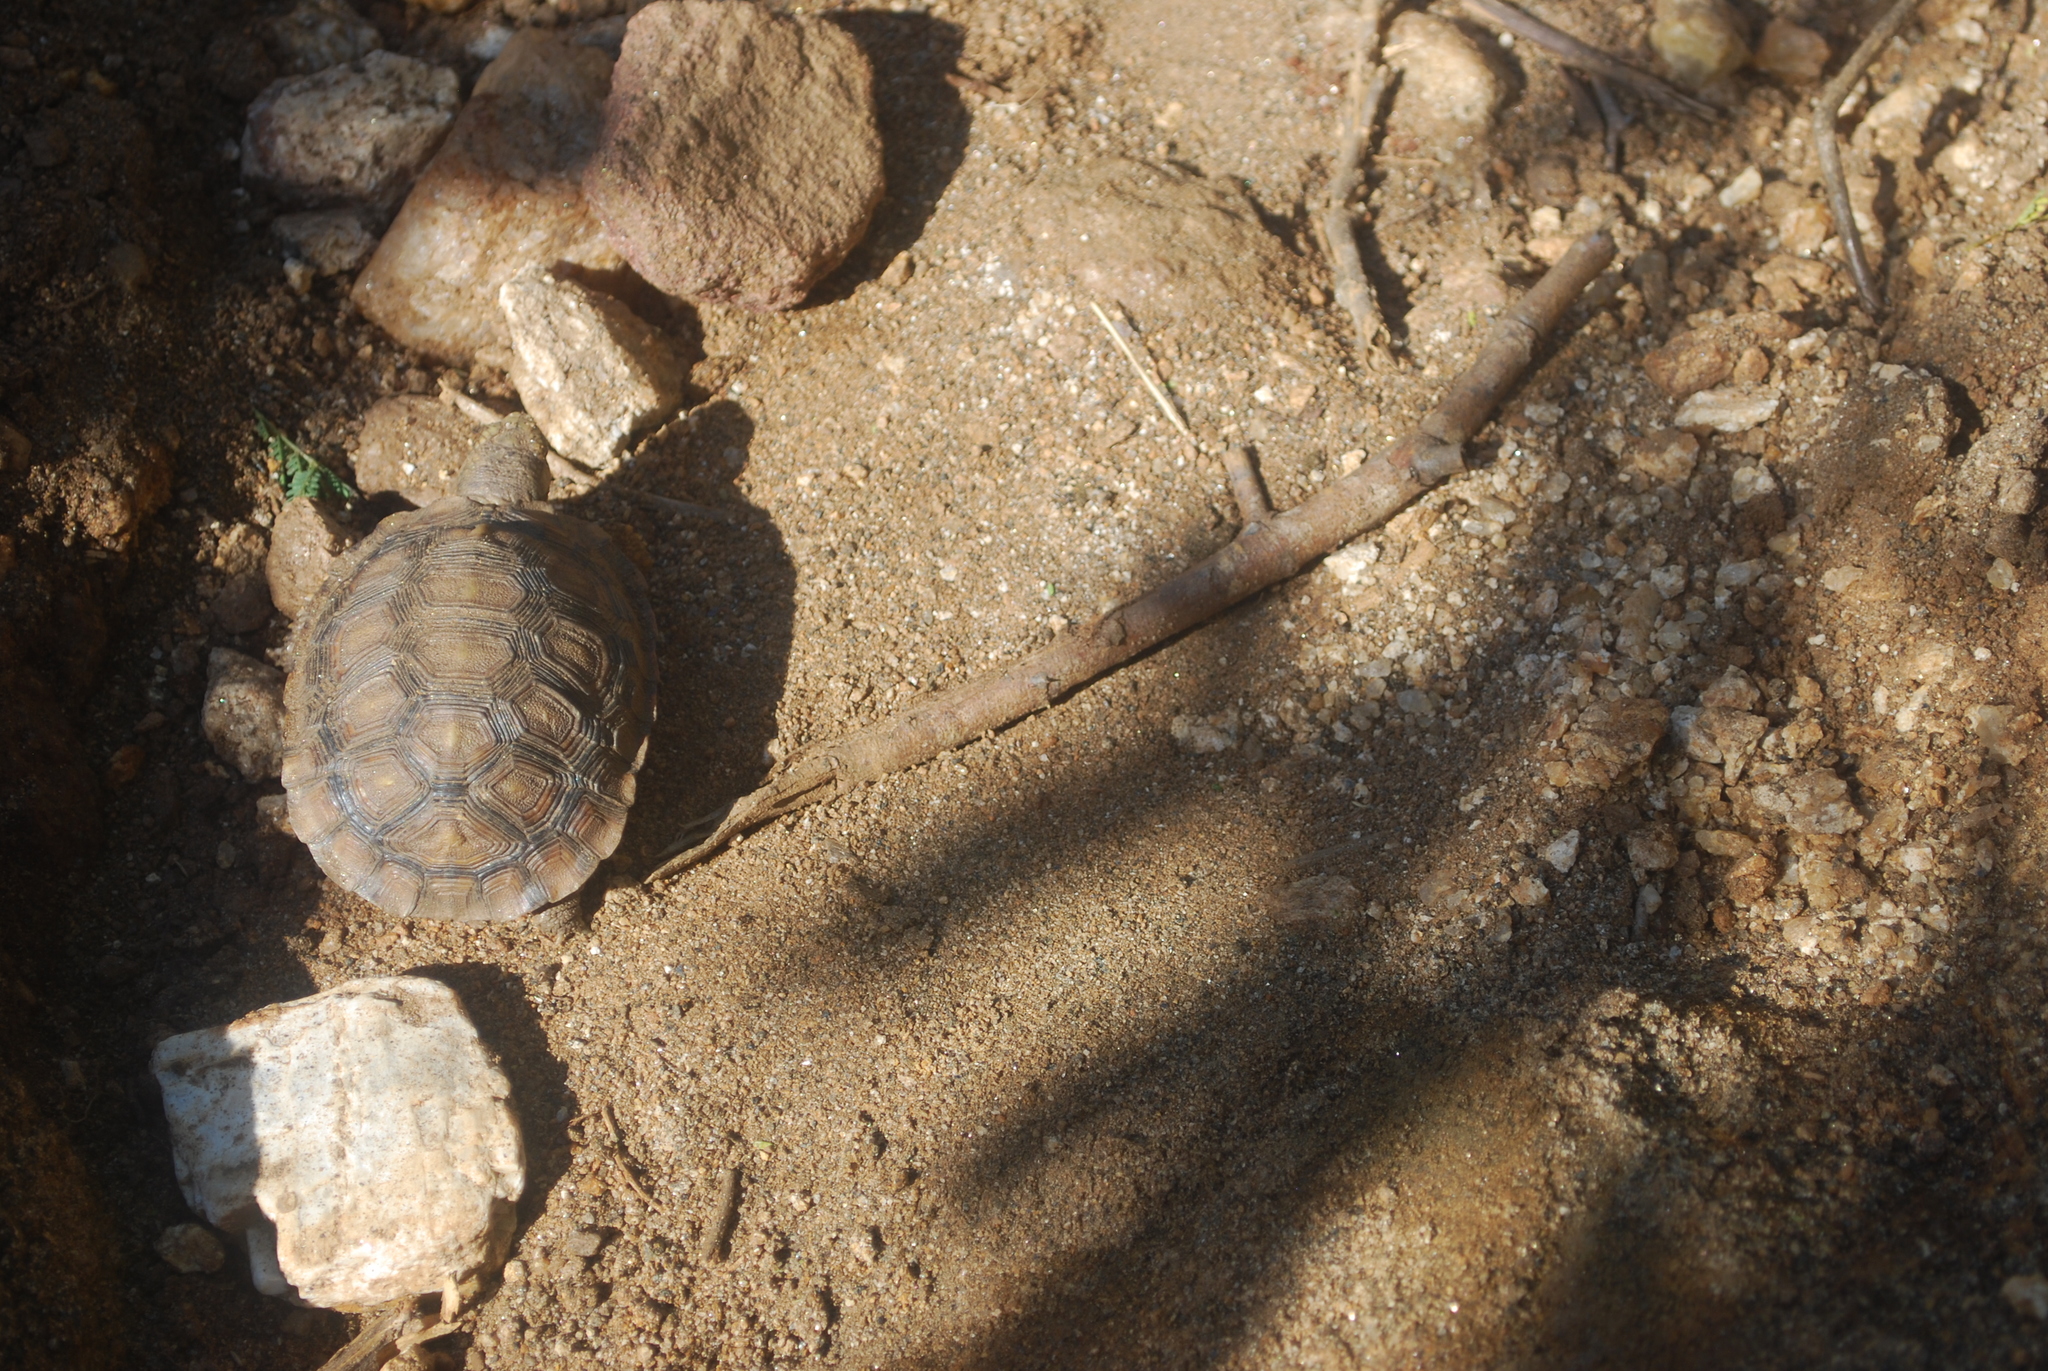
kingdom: Animalia
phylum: Chordata
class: Testudines
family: Testudinidae
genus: Kinixys
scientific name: Kinixys spekii
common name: Speke's hingeback tortoise
